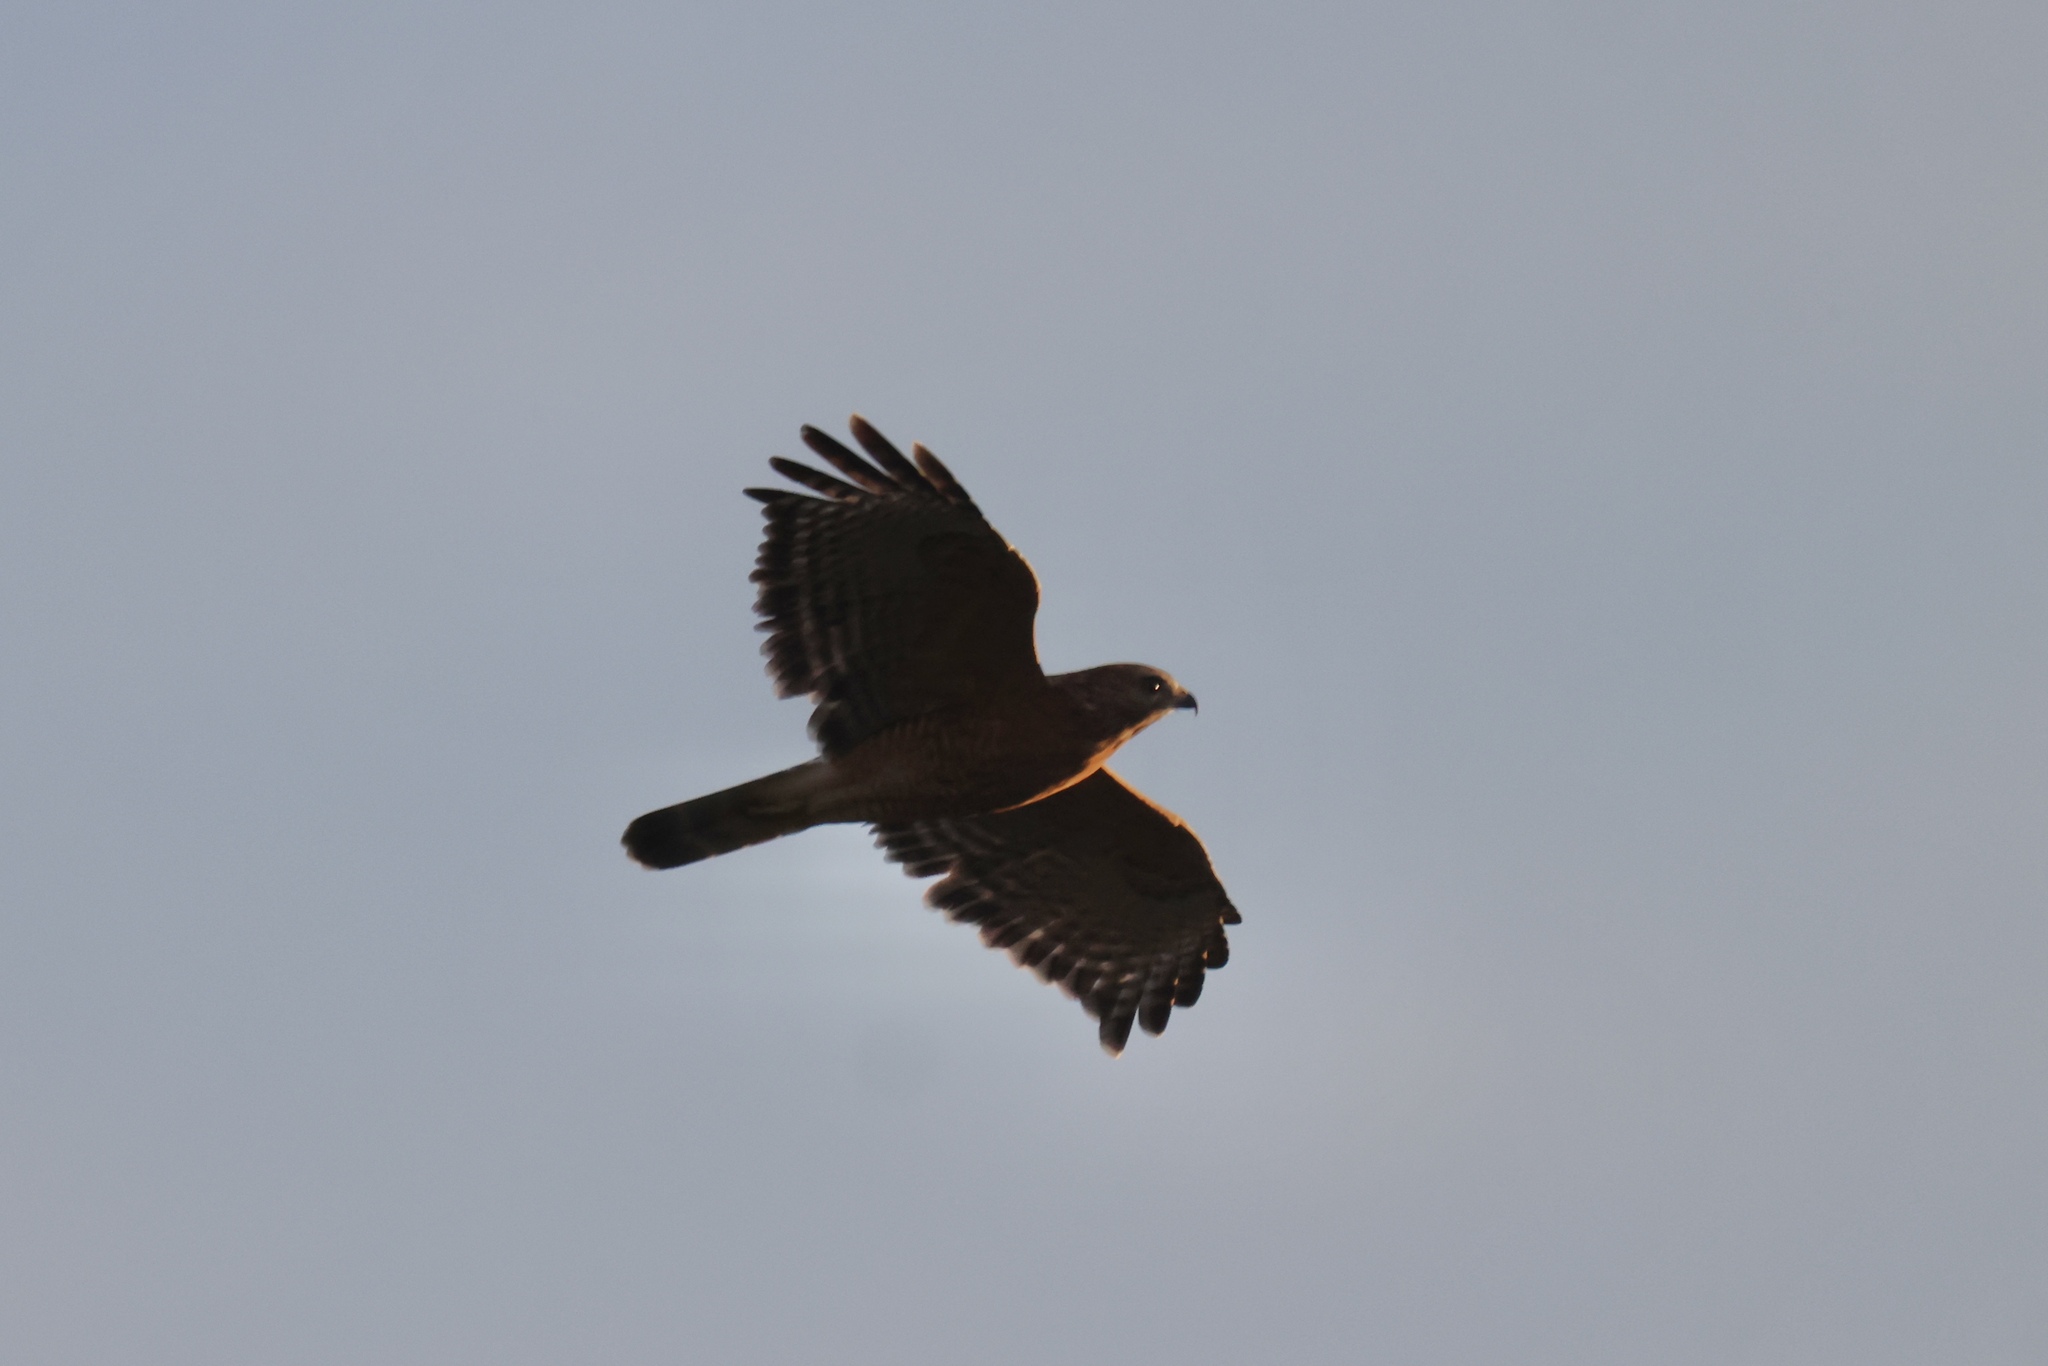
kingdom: Animalia
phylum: Chordata
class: Aves
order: Accipitriformes
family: Accipitridae
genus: Buteo
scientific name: Buteo lineatus
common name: Red-shouldered hawk
